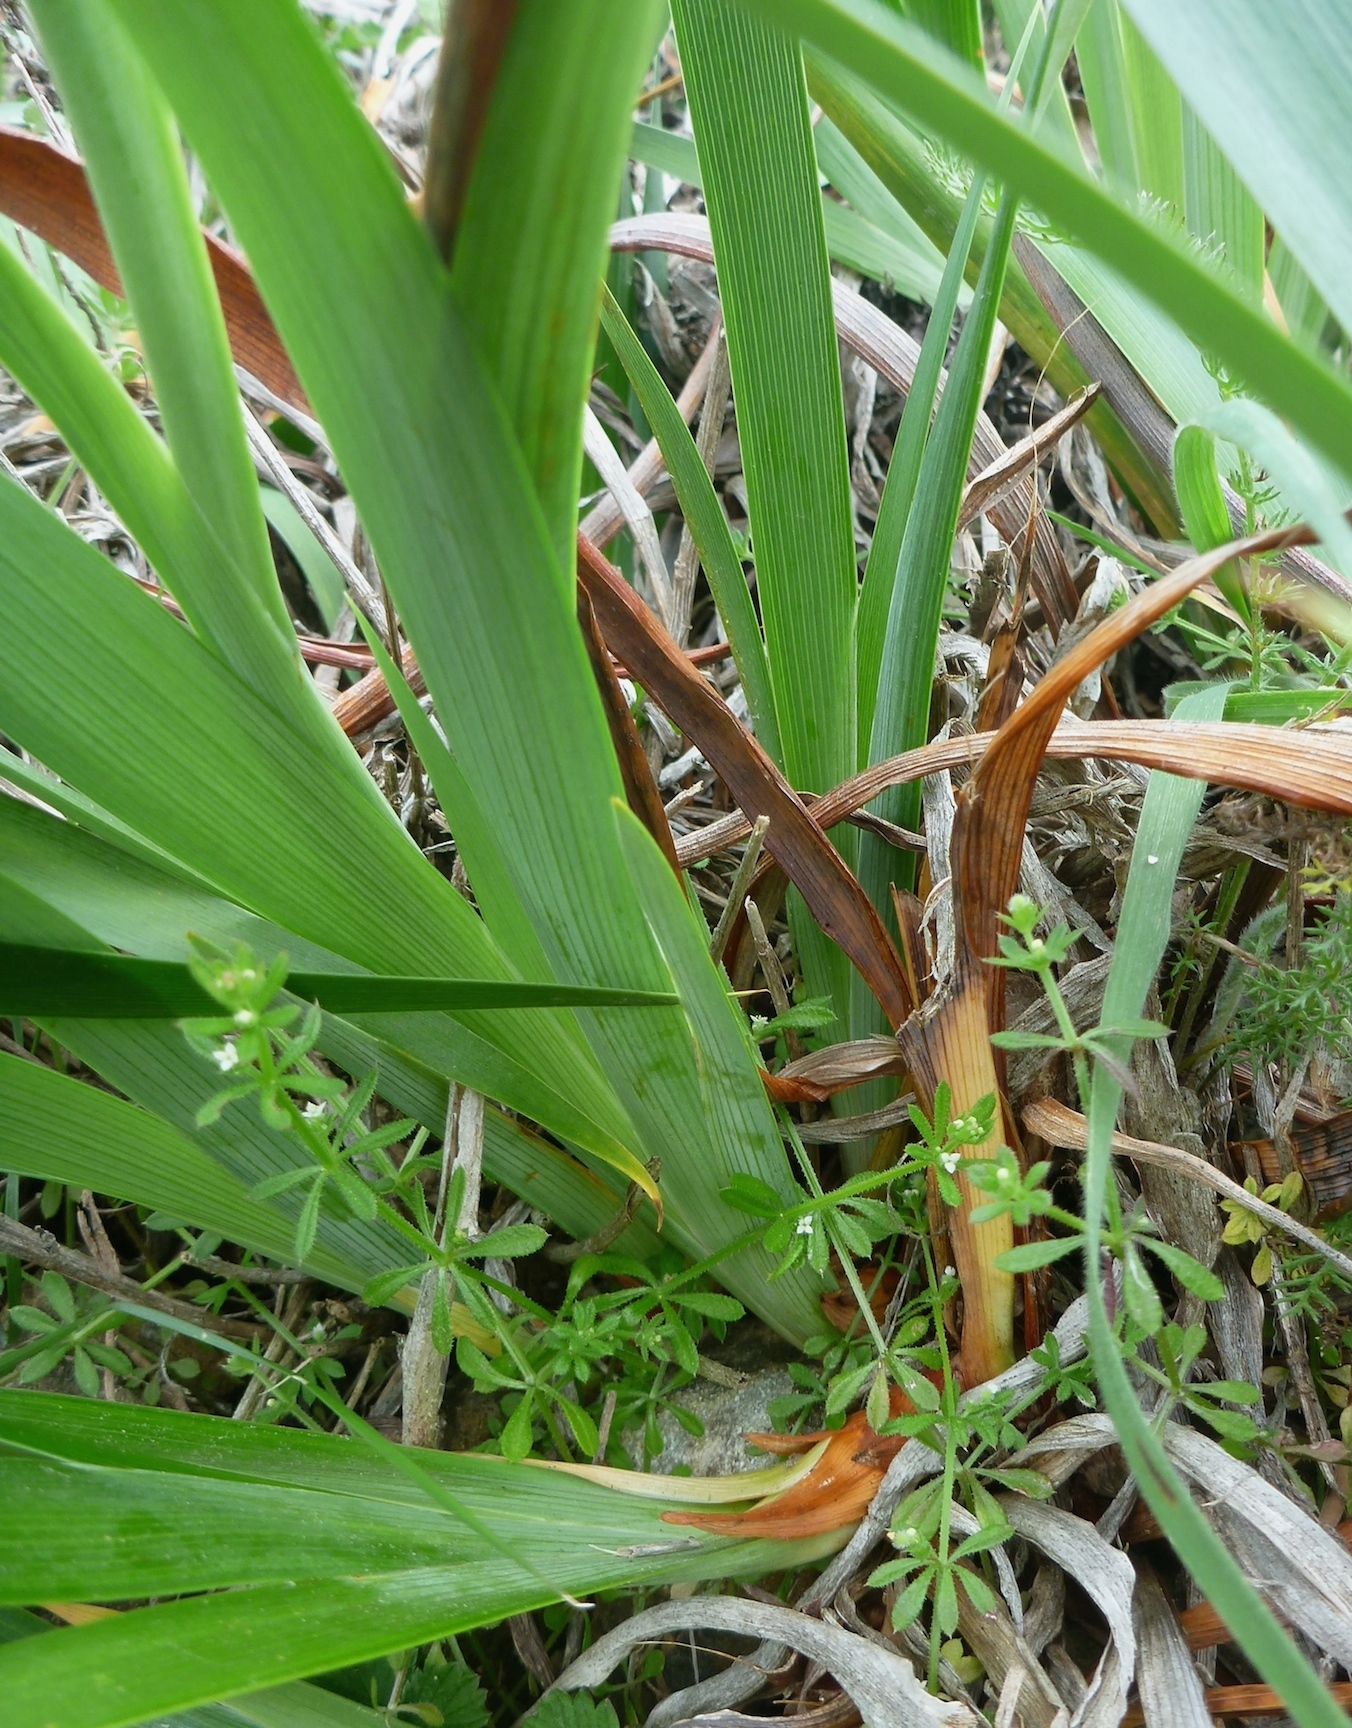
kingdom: Plantae
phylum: Tracheophyta
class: Liliopsida
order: Asparagales
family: Iridaceae
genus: Iris
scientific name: Iris douglasiana
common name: Marin iris
